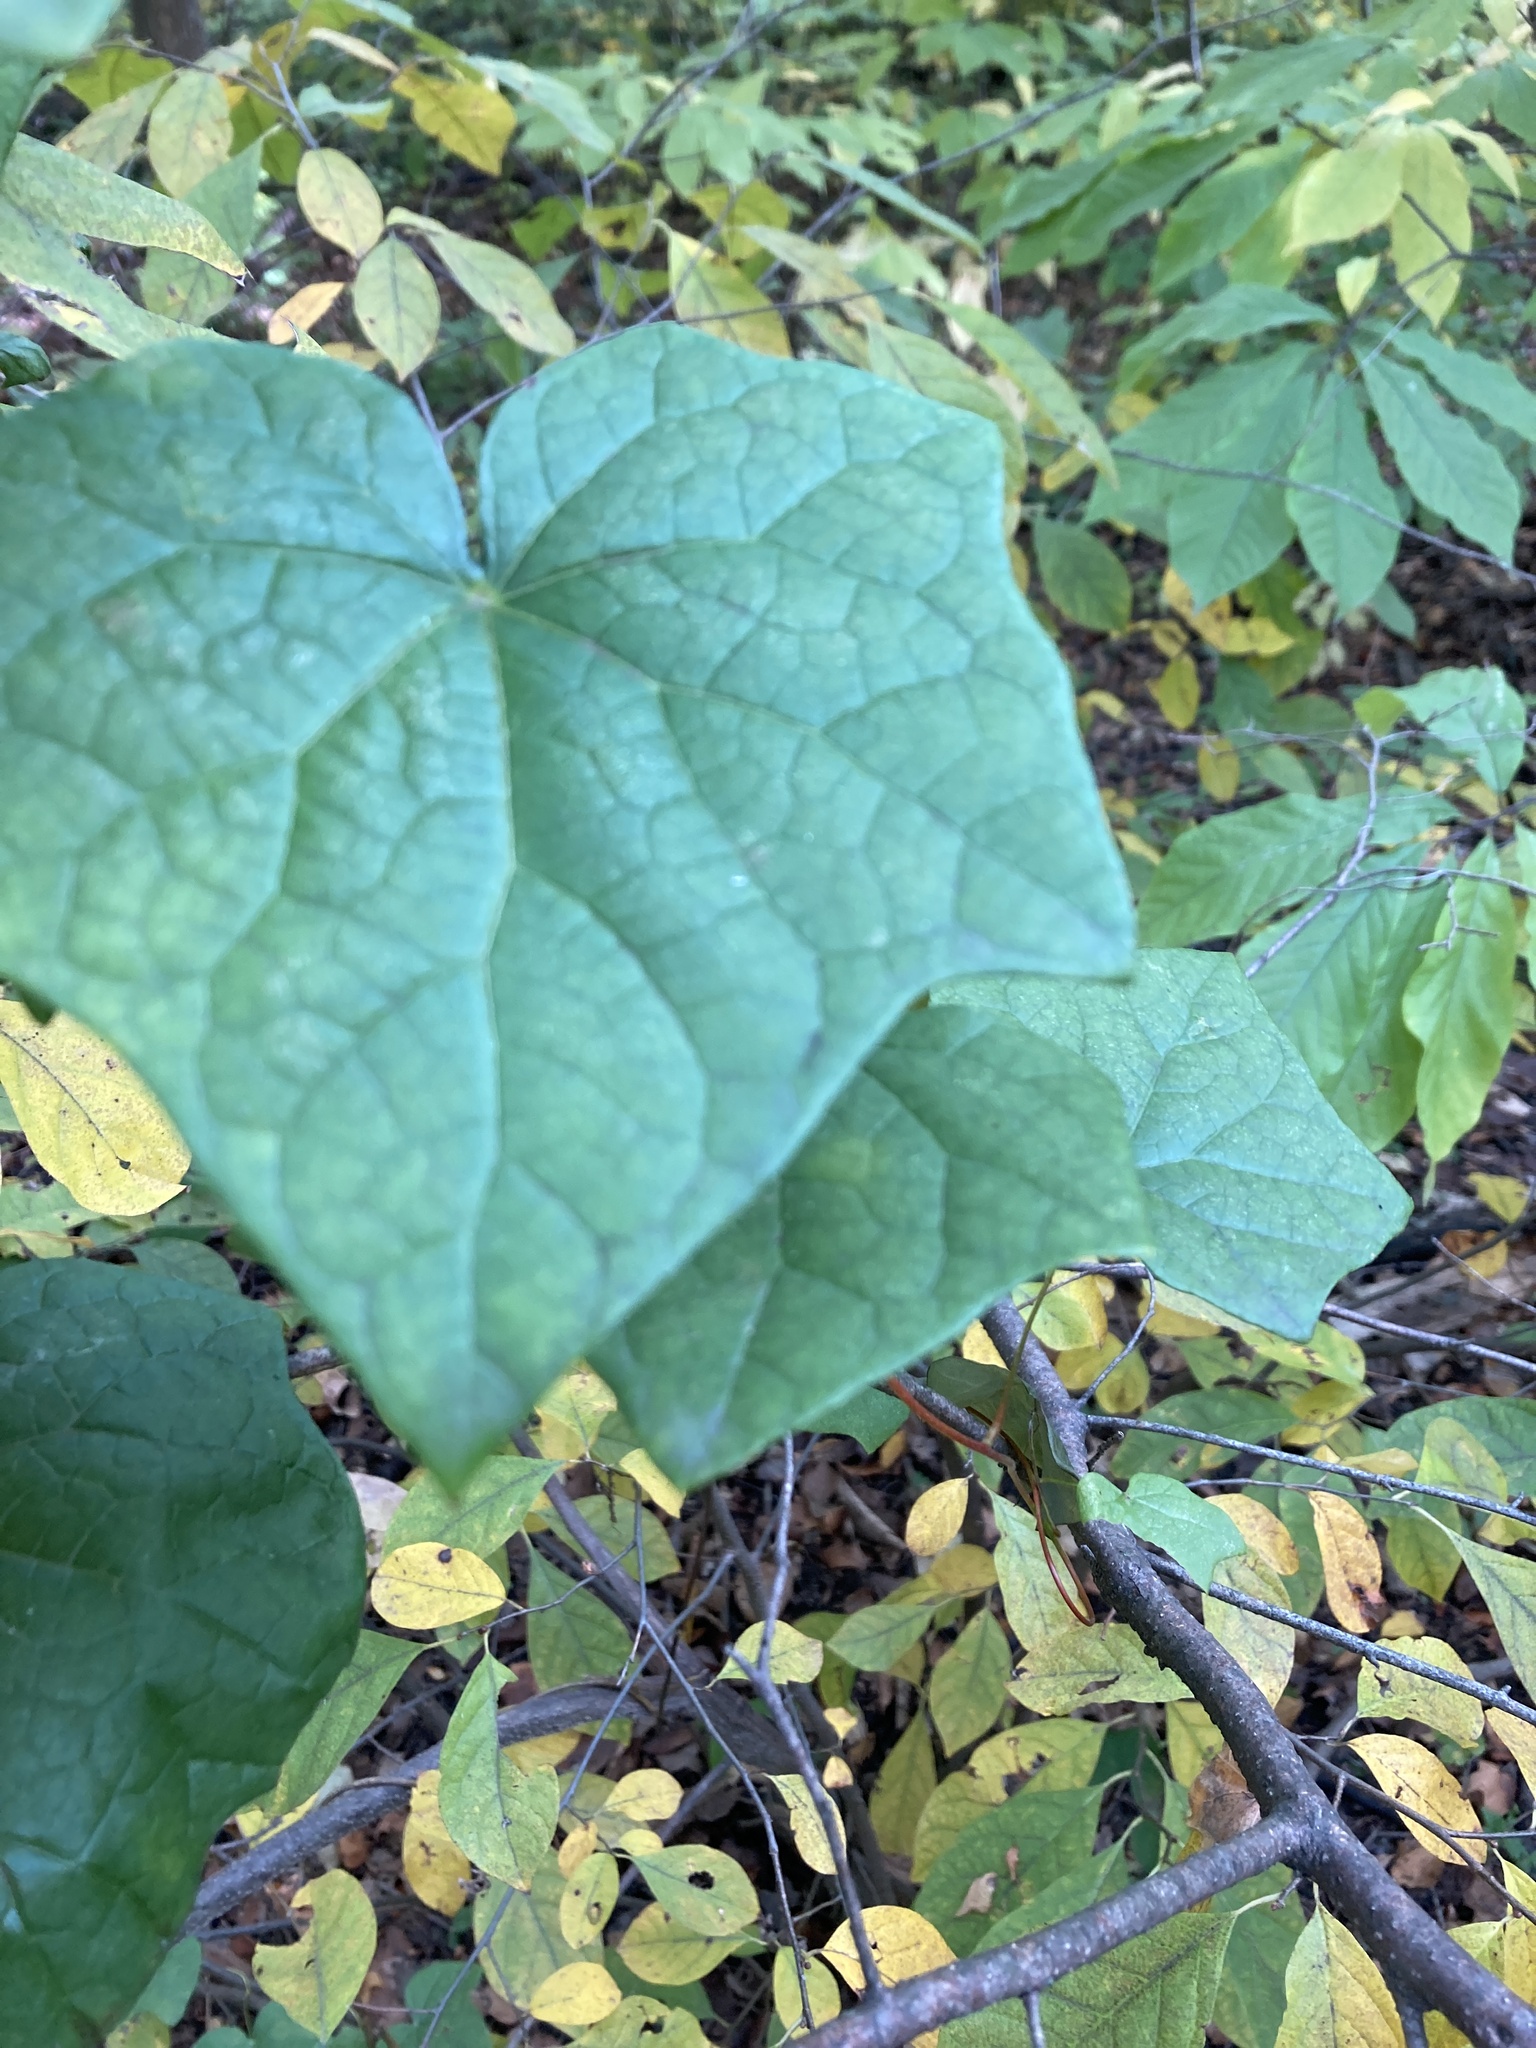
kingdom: Plantae
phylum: Tracheophyta
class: Magnoliopsida
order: Ranunculales
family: Menispermaceae
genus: Menispermum
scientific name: Menispermum canadense
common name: Moonseed
